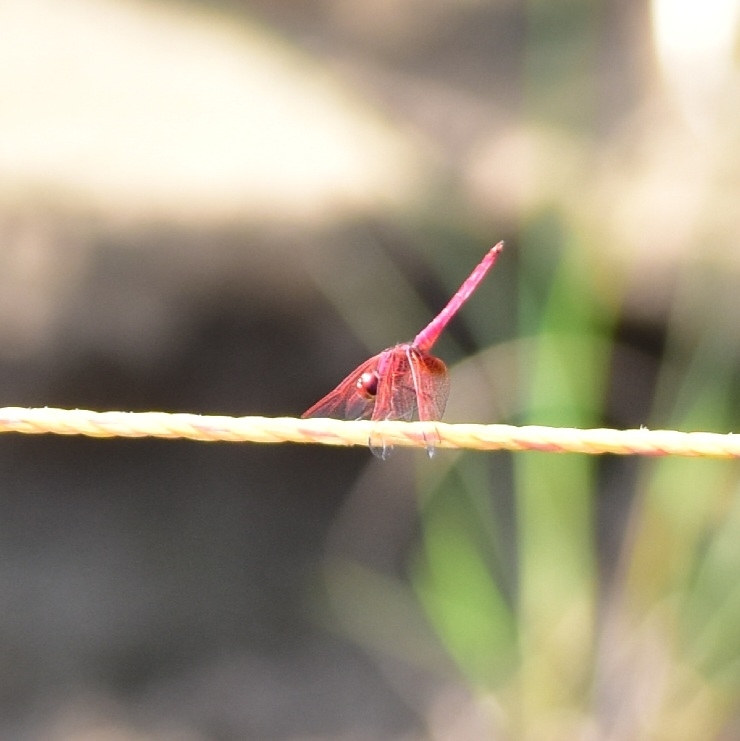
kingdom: Animalia
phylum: Arthropoda
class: Insecta
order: Odonata
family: Libellulidae
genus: Trithemis
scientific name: Trithemis aurora
